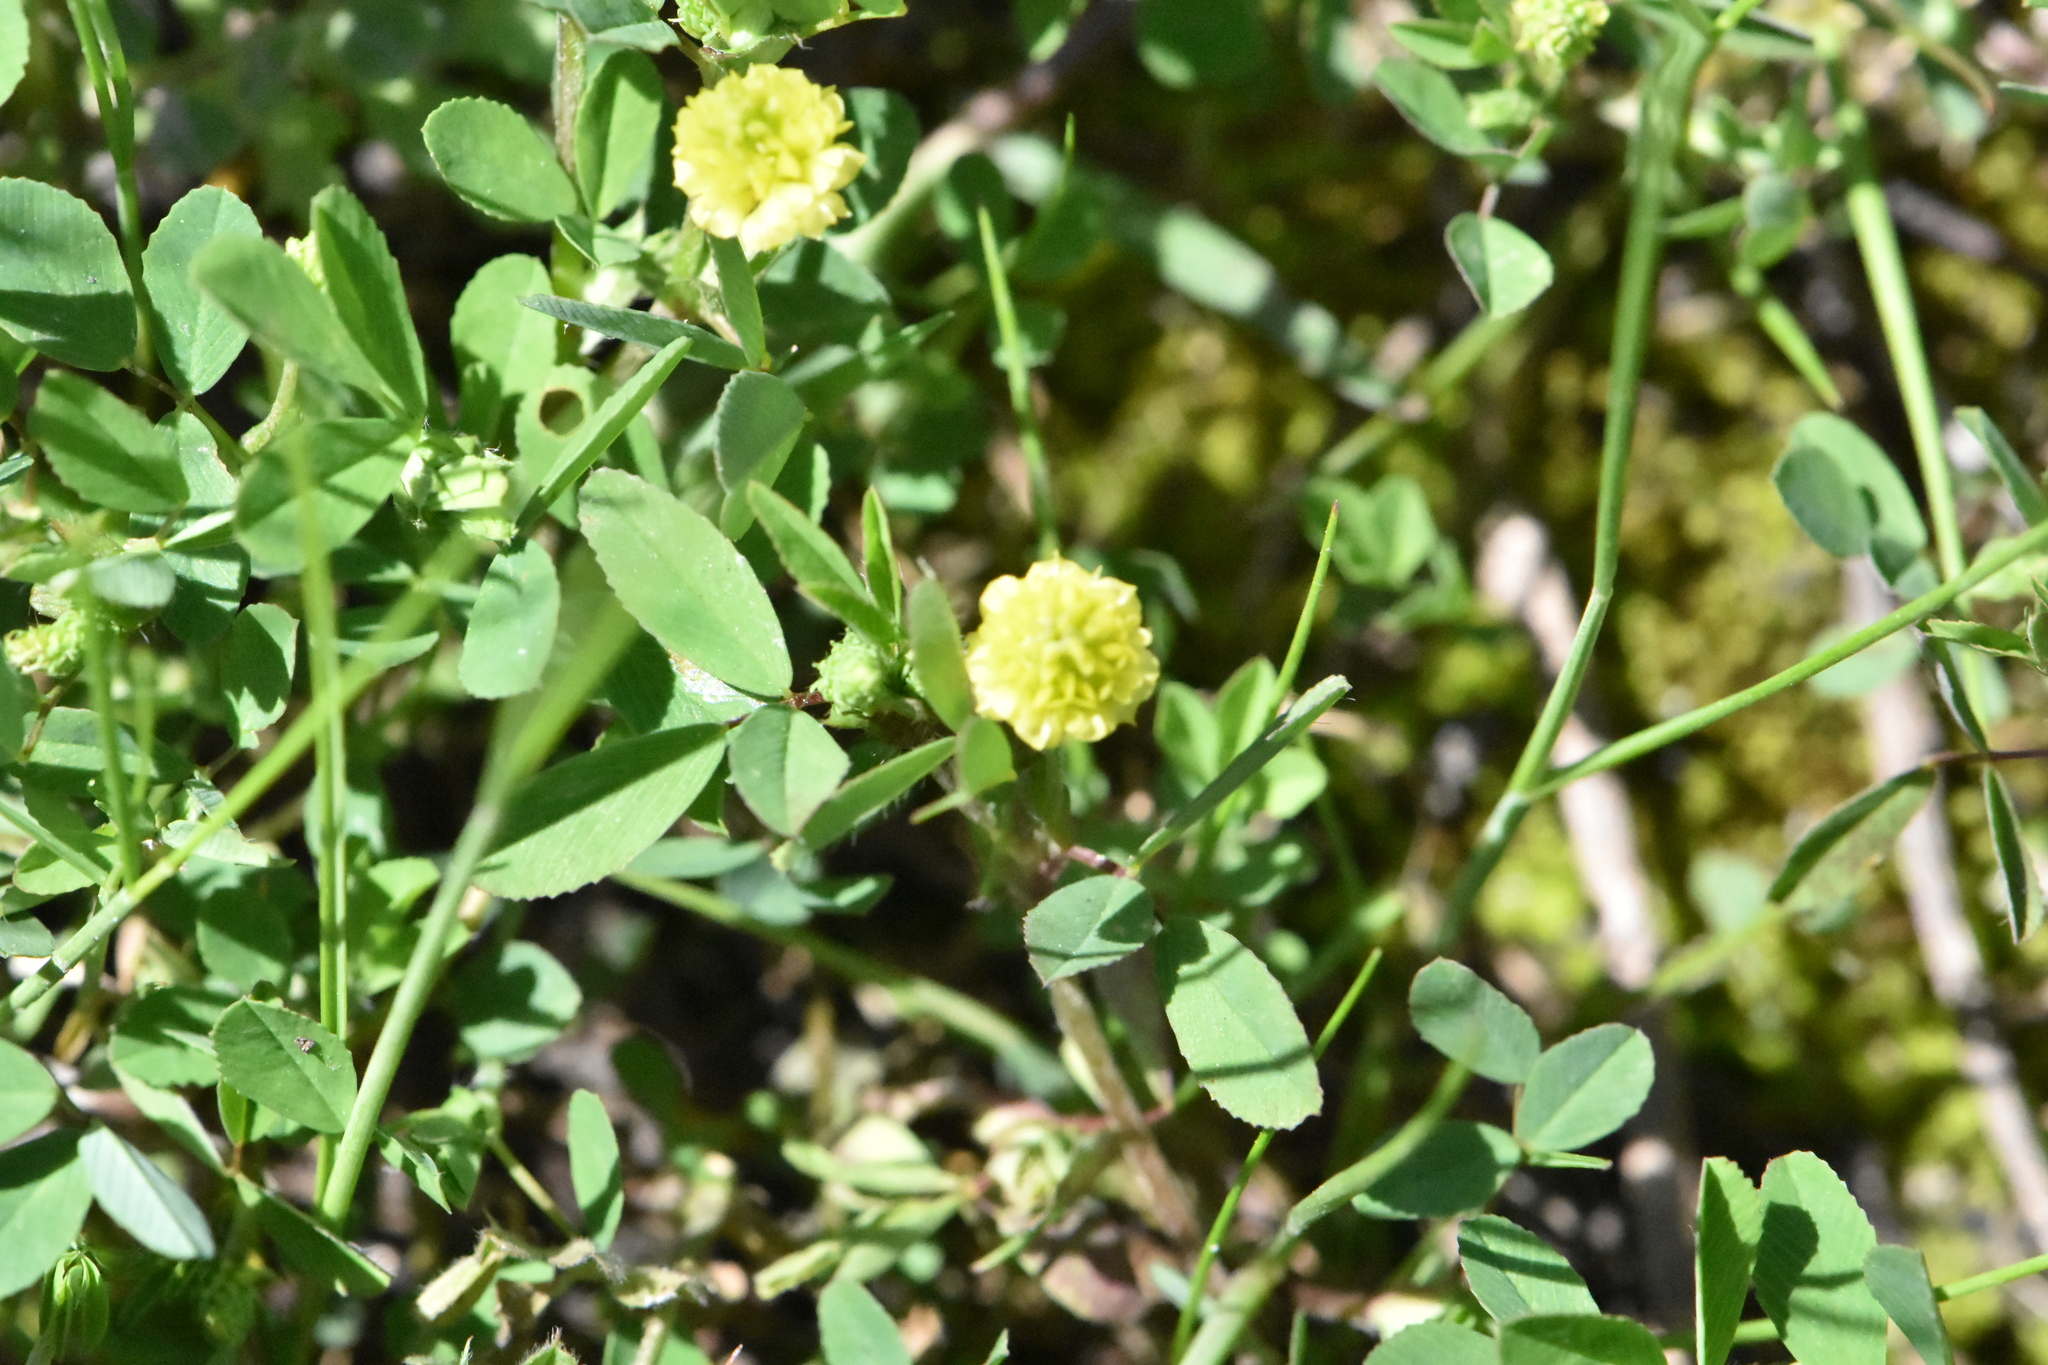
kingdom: Plantae
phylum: Tracheophyta
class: Magnoliopsida
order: Fabales
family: Fabaceae
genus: Trifolium
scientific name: Trifolium campestre
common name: Field clover
